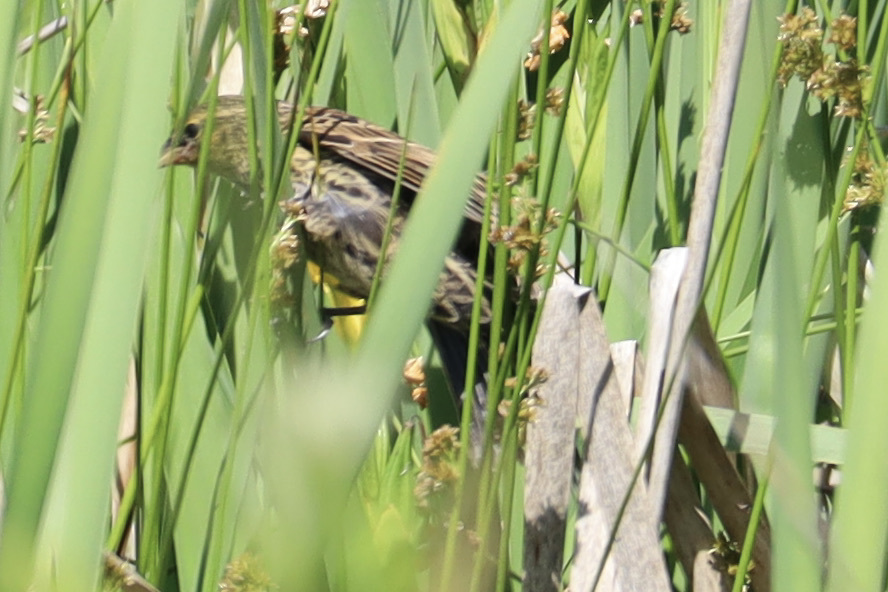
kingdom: Animalia
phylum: Chordata
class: Aves
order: Passeriformes
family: Icteridae
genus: Agelaius
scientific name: Agelaius phoeniceus
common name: Red-winged blackbird
